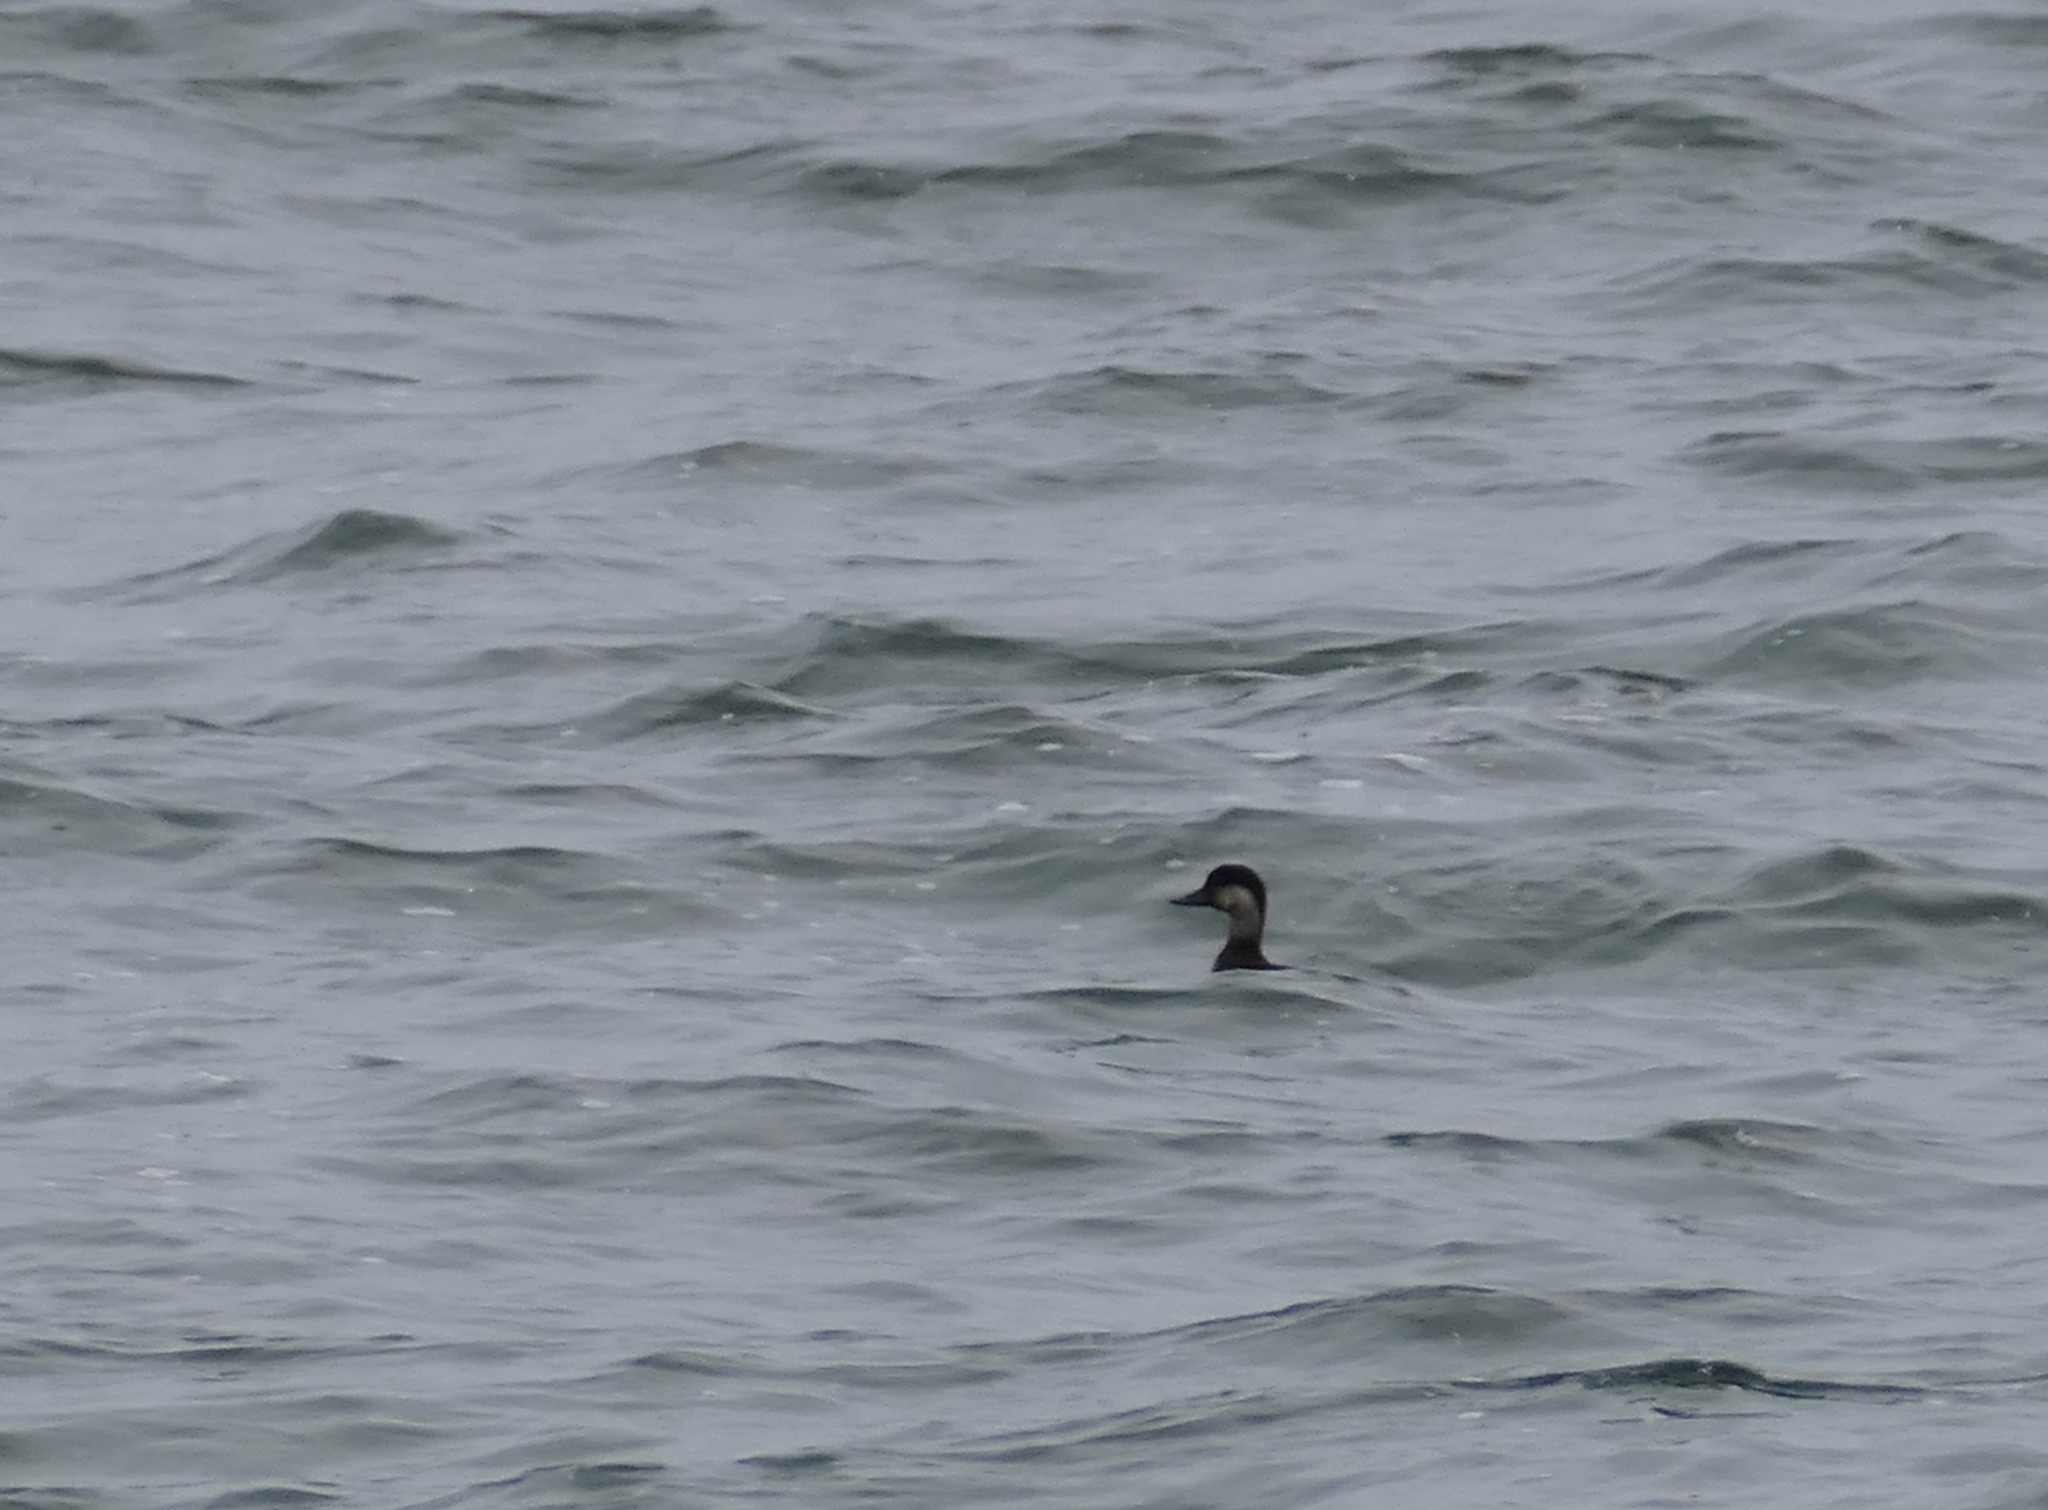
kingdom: Animalia
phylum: Chordata
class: Aves
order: Anseriformes
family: Anatidae
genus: Melanitta
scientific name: Melanitta americana
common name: Black scoter
